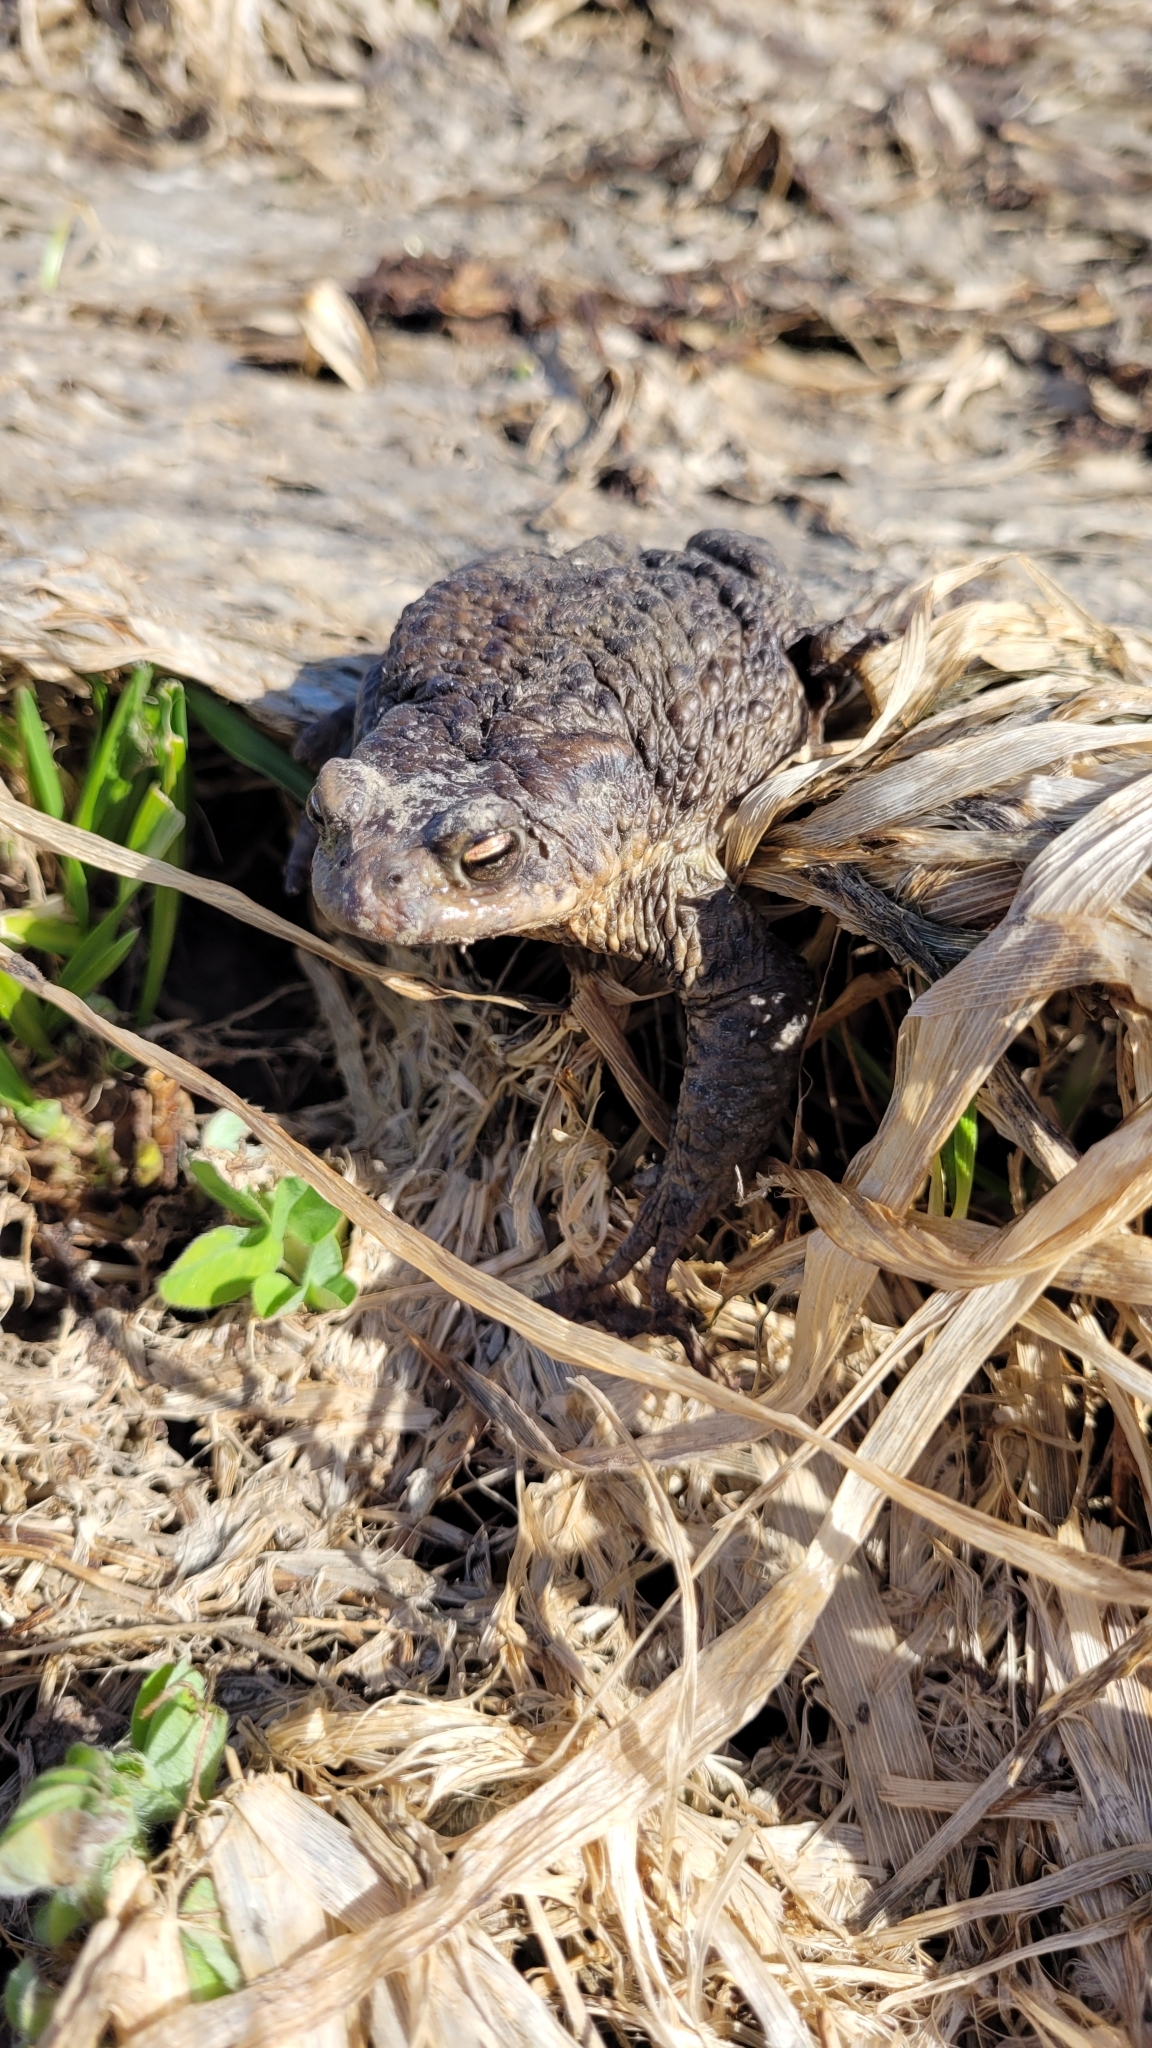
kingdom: Animalia
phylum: Chordata
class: Amphibia
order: Anura
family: Bufonidae
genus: Bufo
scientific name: Bufo bufo
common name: Common toad
